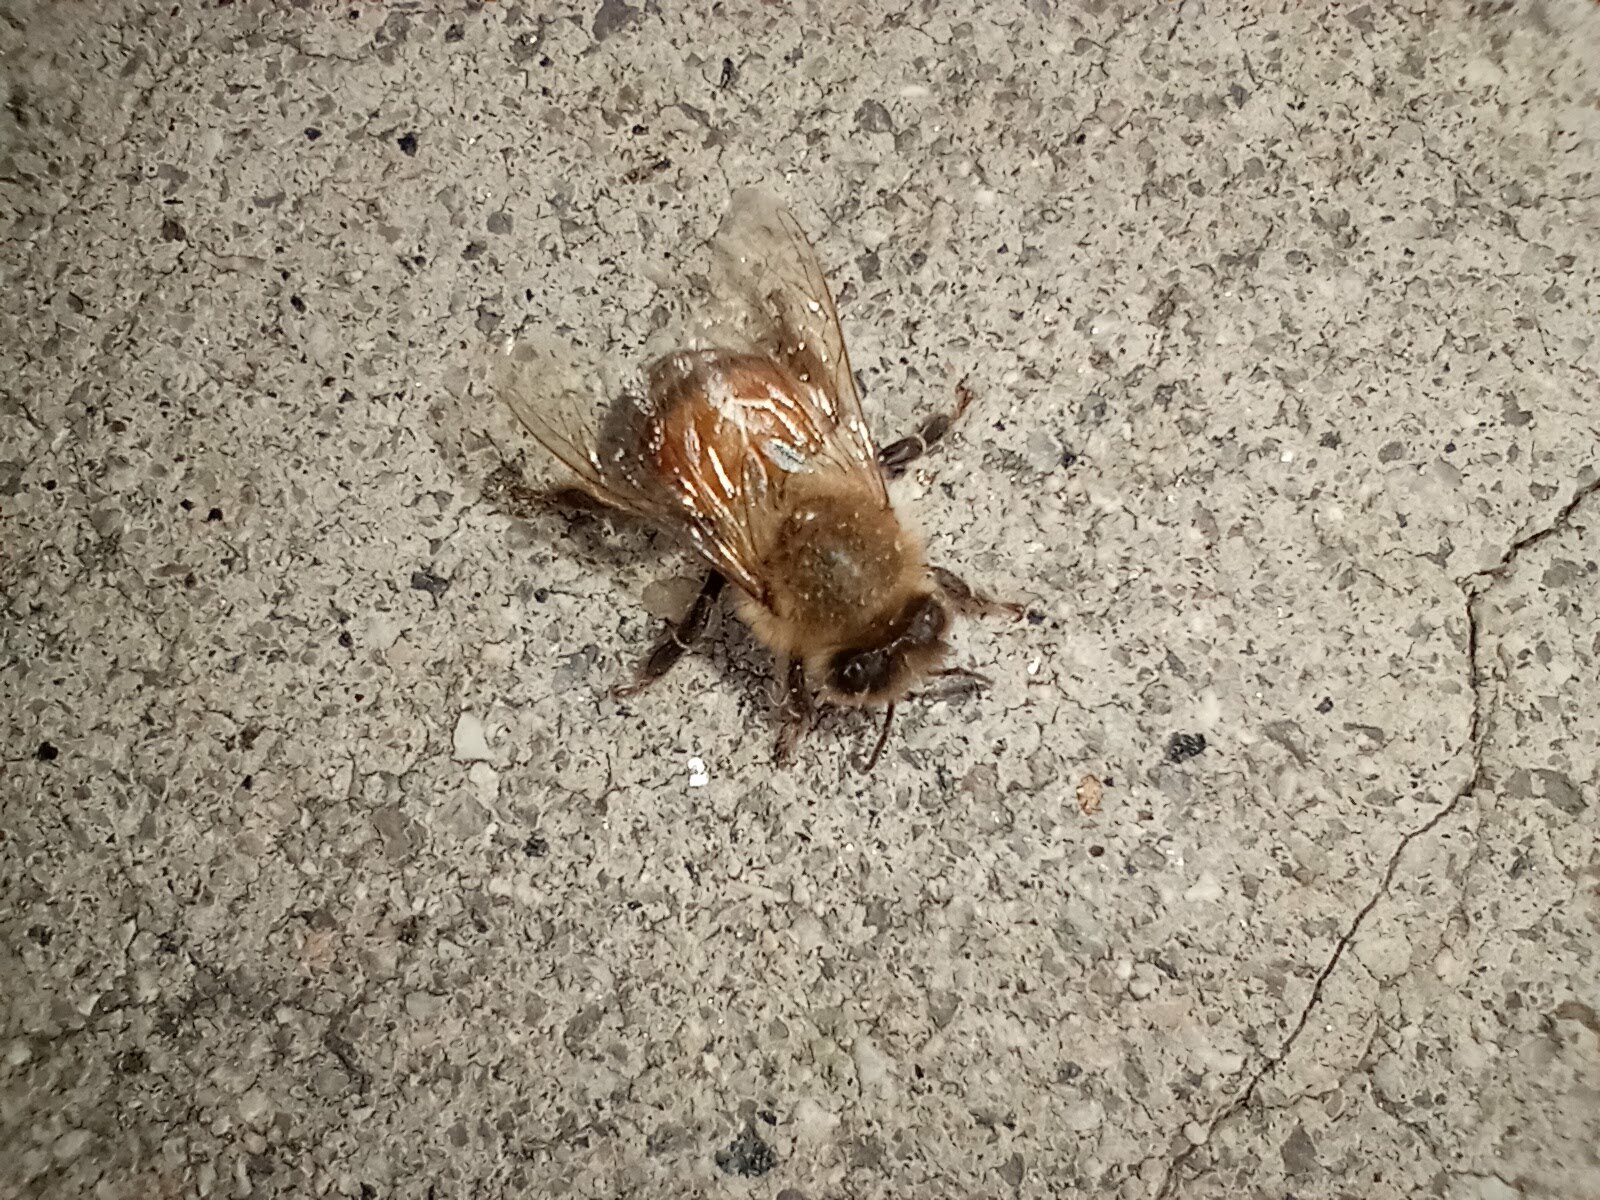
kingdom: Animalia
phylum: Arthropoda
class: Insecta
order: Hymenoptera
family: Apidae
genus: Apis
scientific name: Apis mellifera
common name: Honey bee
